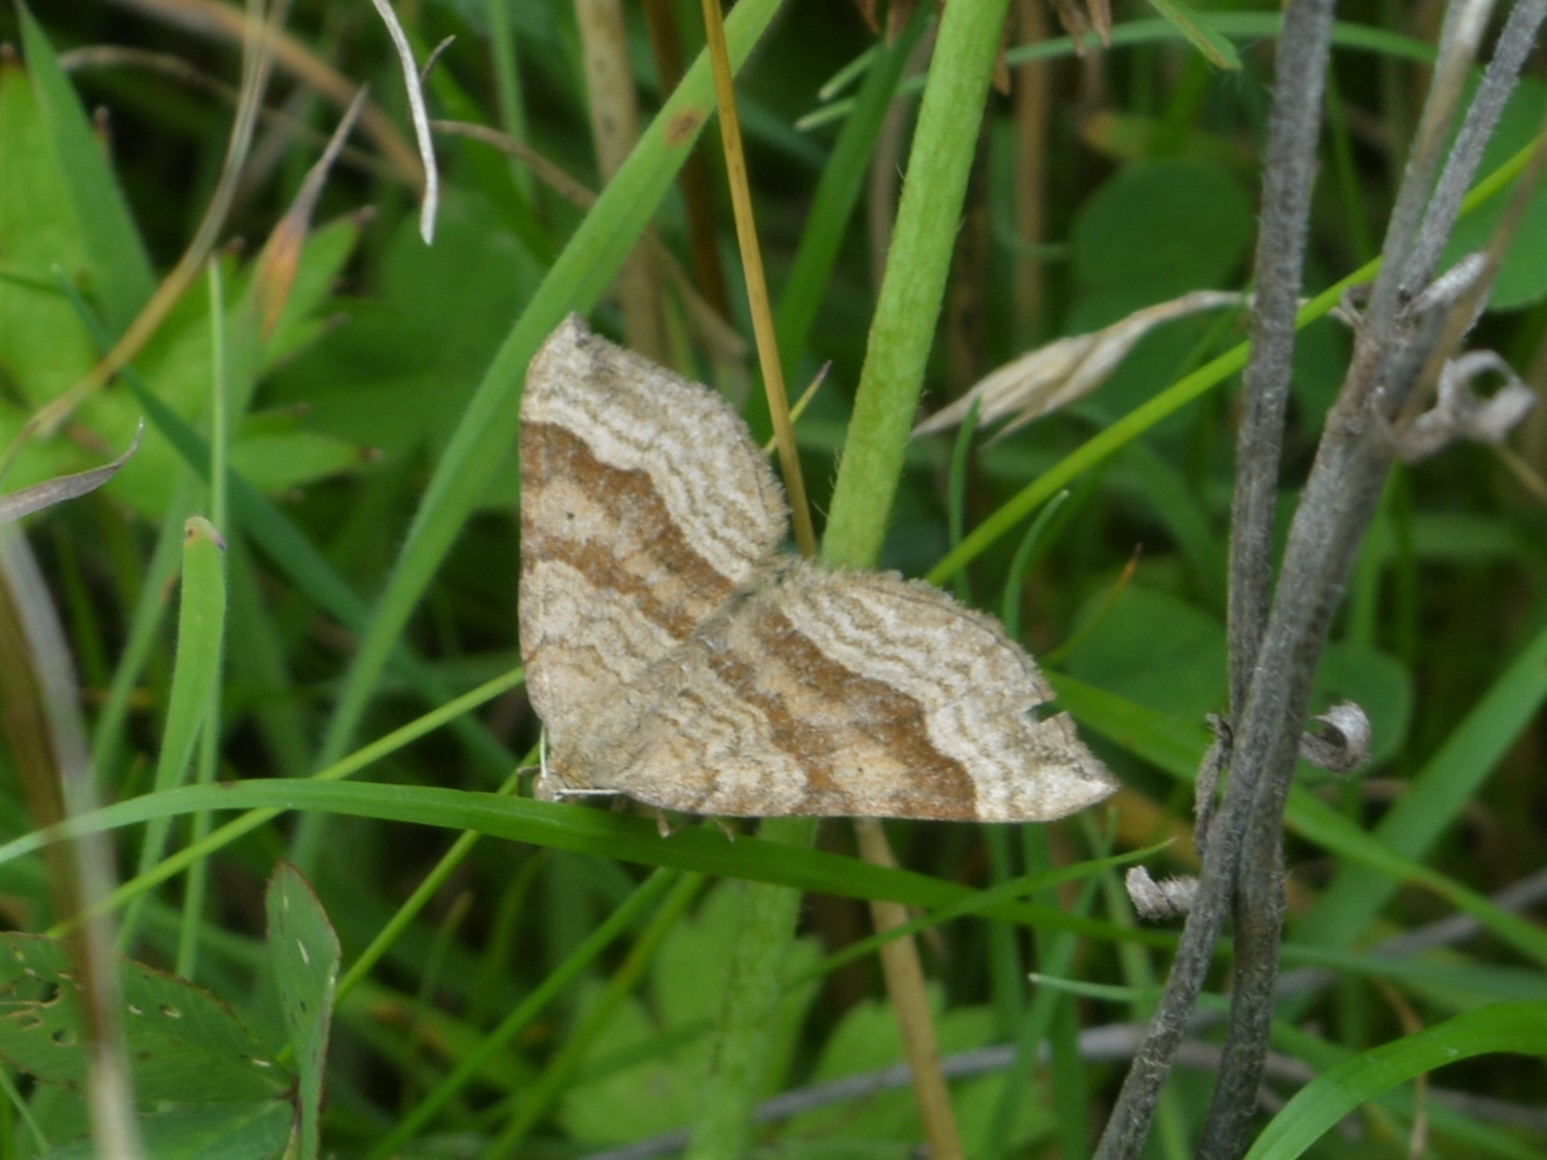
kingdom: Animalia
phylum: Arthropoda
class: Insecta
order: Lepidoptera
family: Geometridae
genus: Scotopteryx
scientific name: Scotopteryx chenopodiata
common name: Shaded broad-bar
